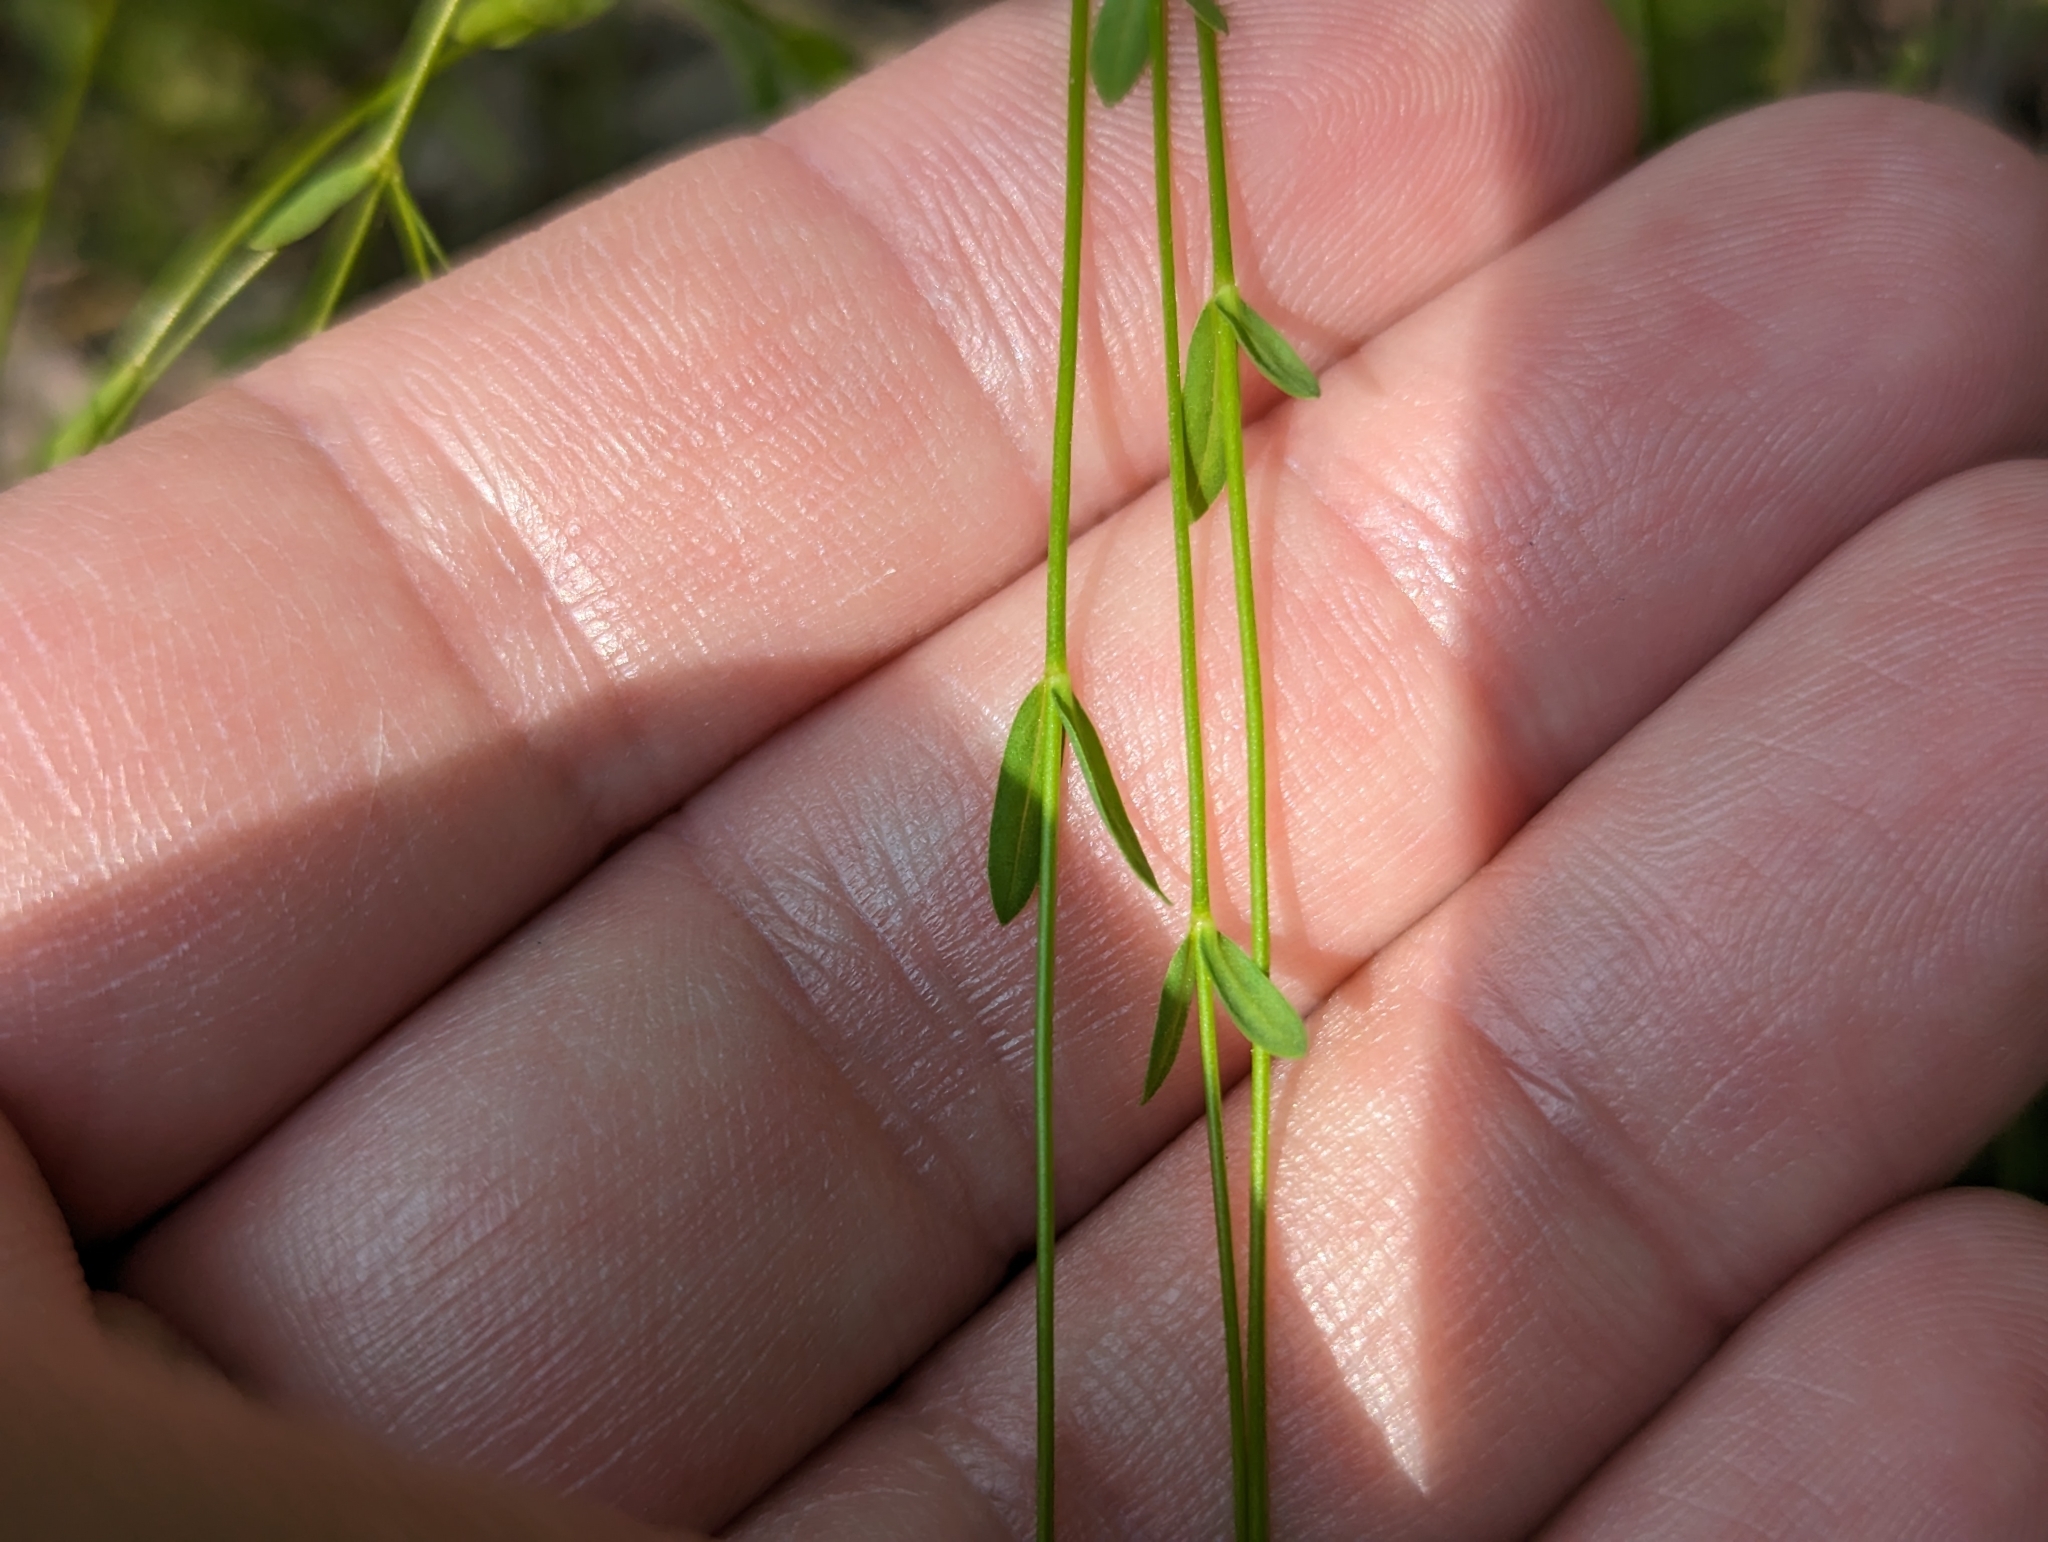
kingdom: Plantae
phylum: Tracheophyta
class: Magnoliopsida
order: Malpighiales
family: Linaceae
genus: Linum
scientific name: Linum catharticum
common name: Fairy flax
